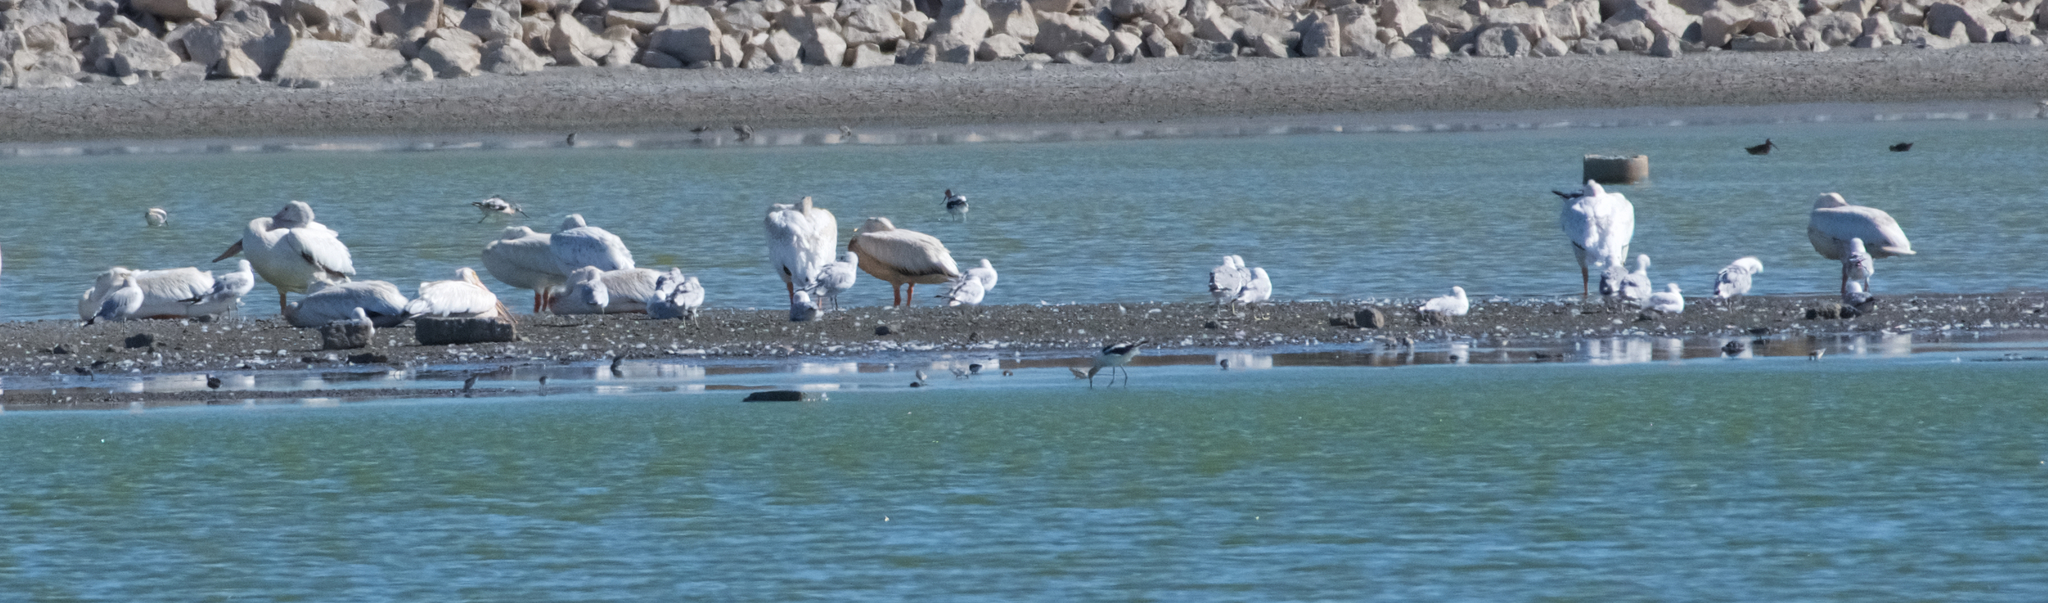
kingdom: Animalia
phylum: Chordata
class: Aves
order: Pelecaniformes
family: Pelecanidae
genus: Pelecanus
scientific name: Pelecanus erythrorhynchos
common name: American white pelican
